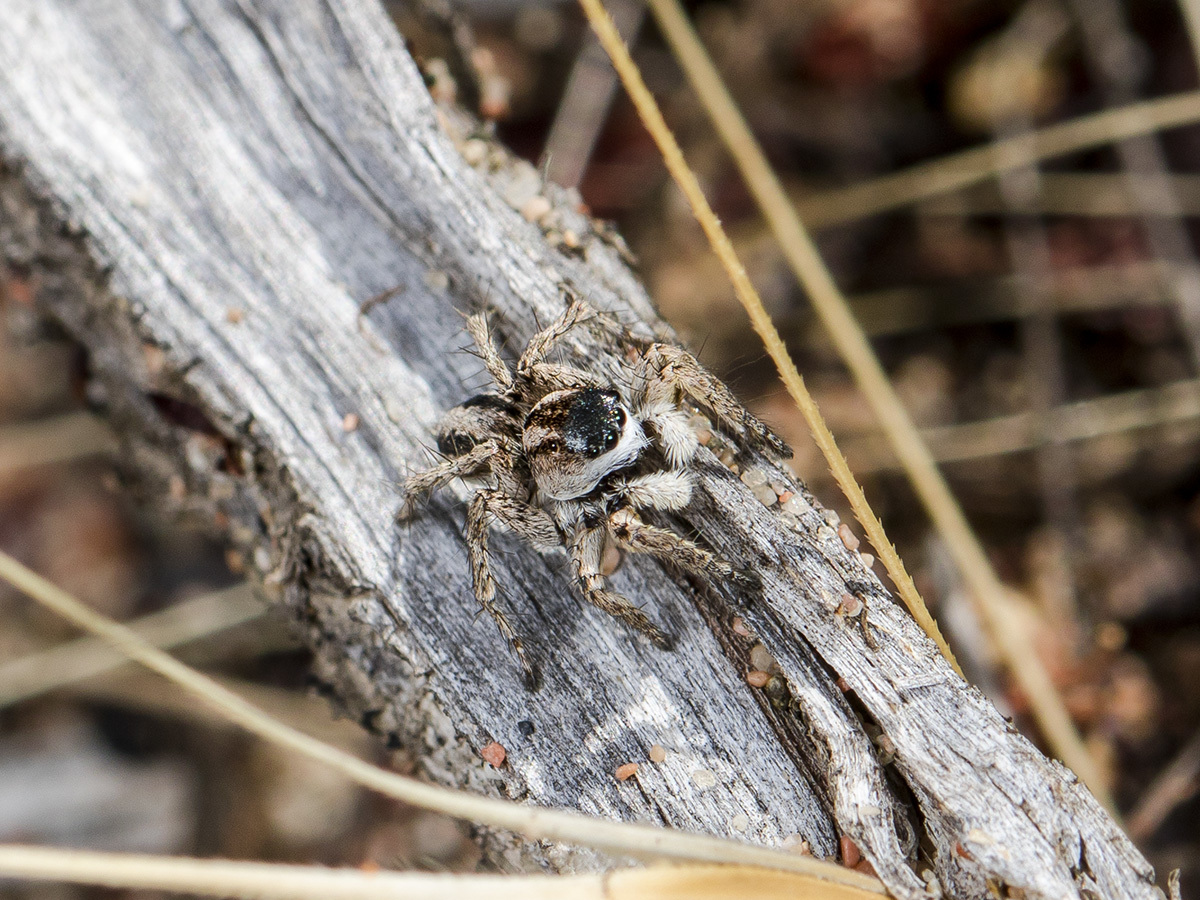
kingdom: Animalia
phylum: Arthropoda
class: Arachnida
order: Araneae
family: Salticidae
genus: Aelurillus
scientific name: Aelurillus m-nigrum
